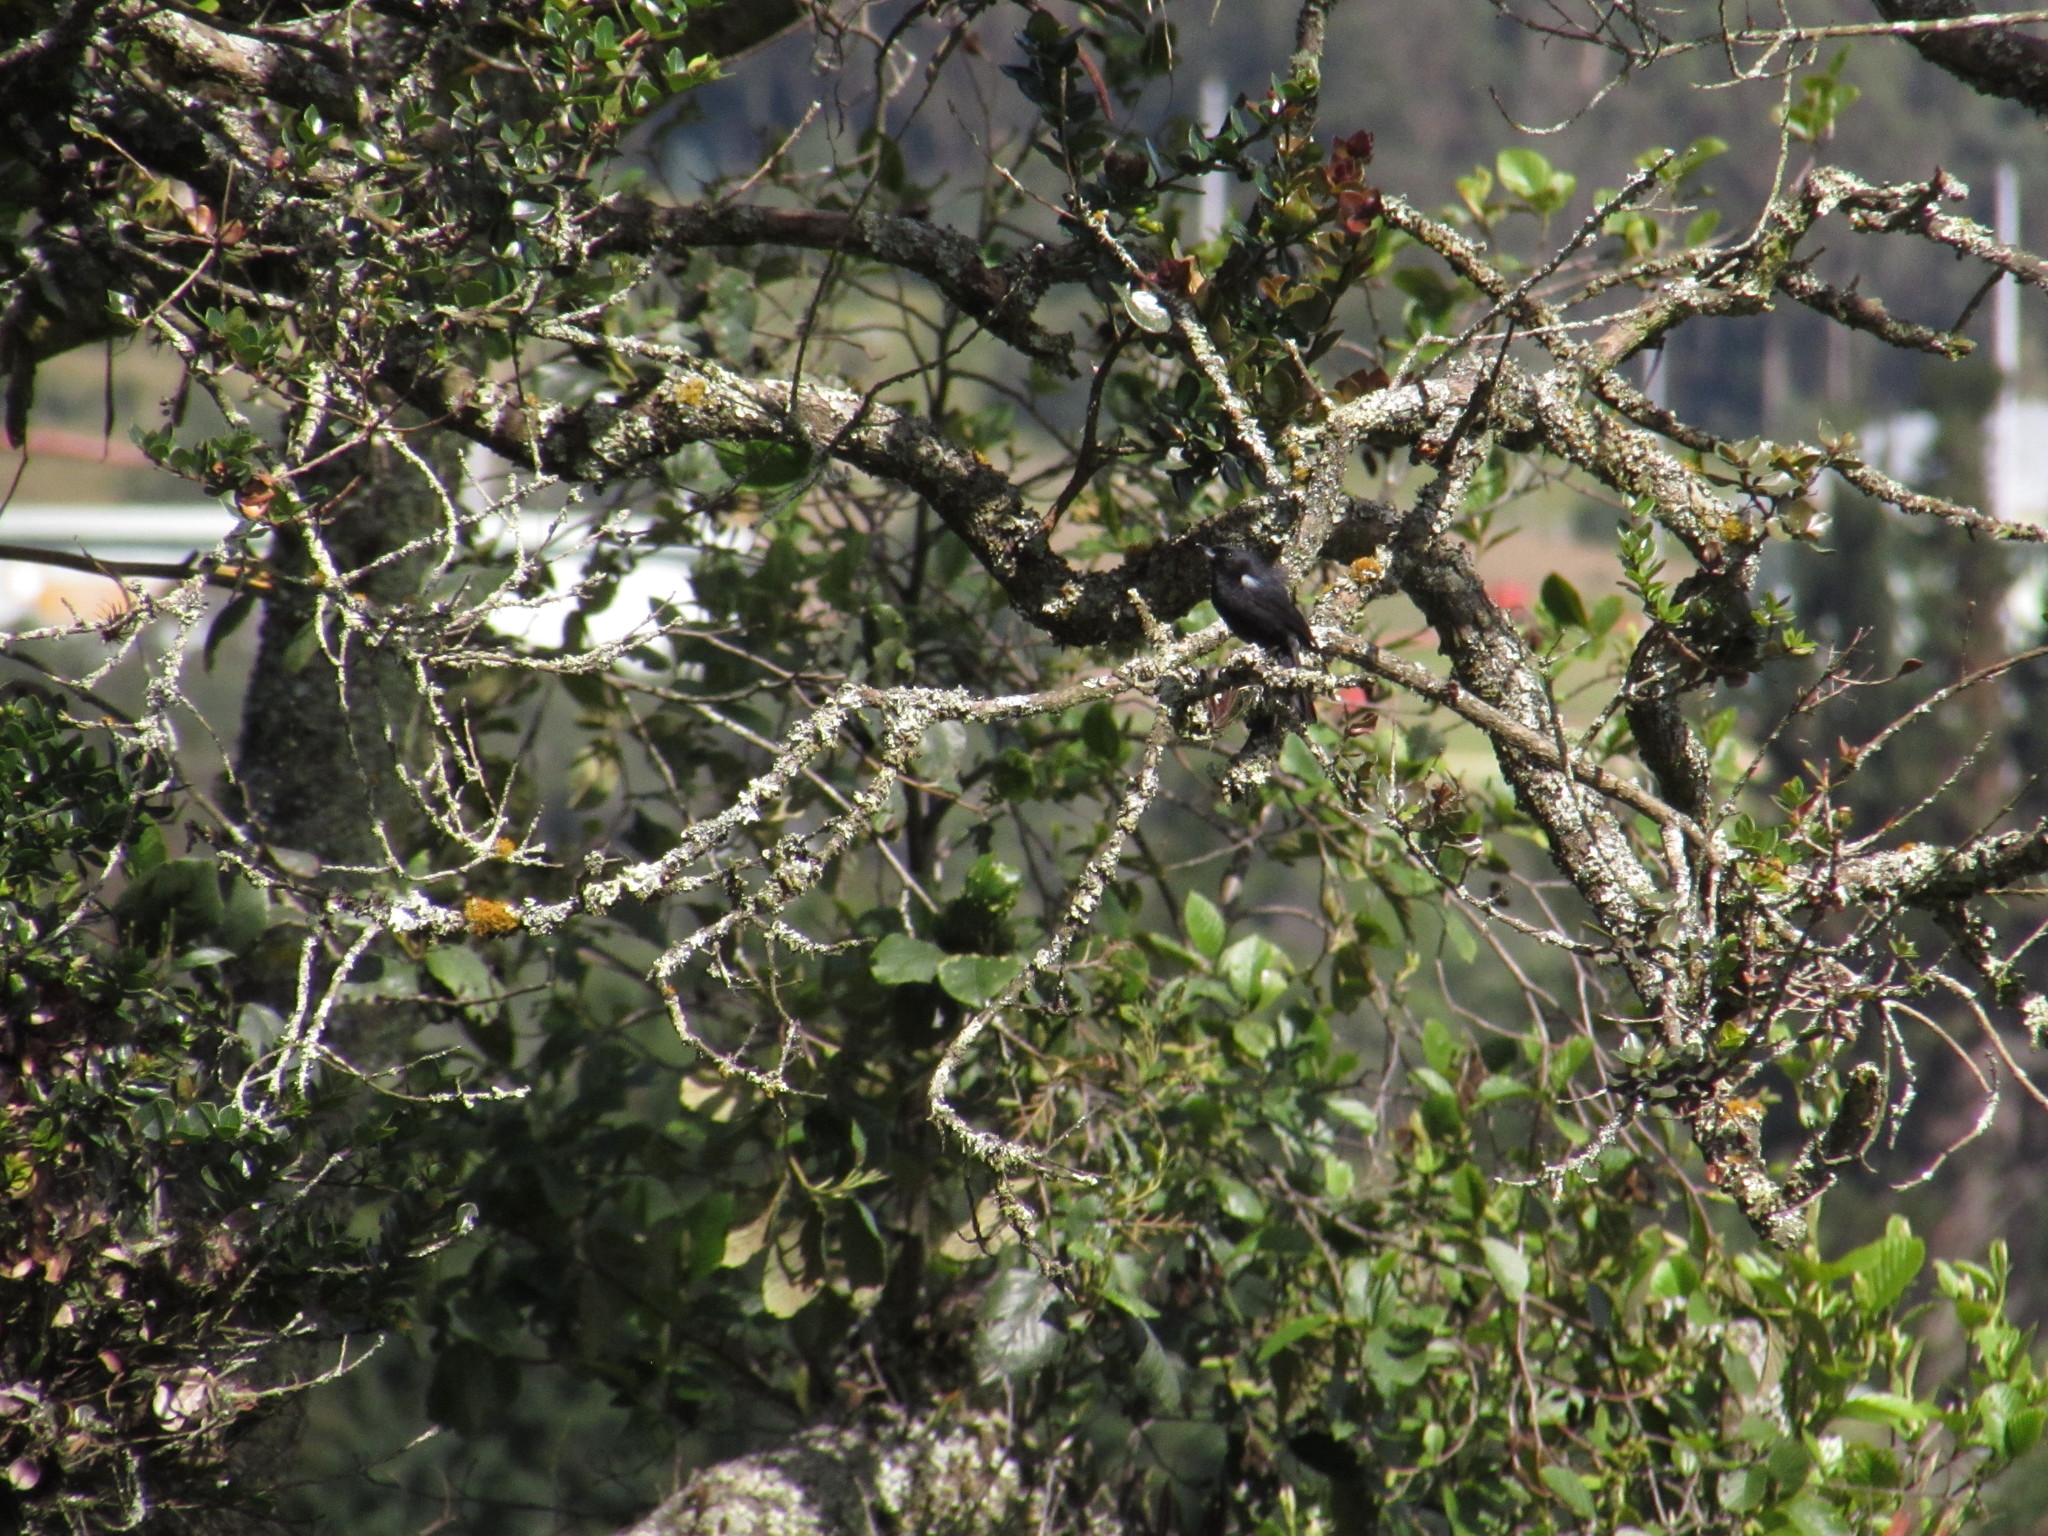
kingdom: Animalia
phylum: Chordata
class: Aves
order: Passeriformes
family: Thraupidae
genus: Diglossa
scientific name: Diglossa humeralis
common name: Black flowerpiercer
